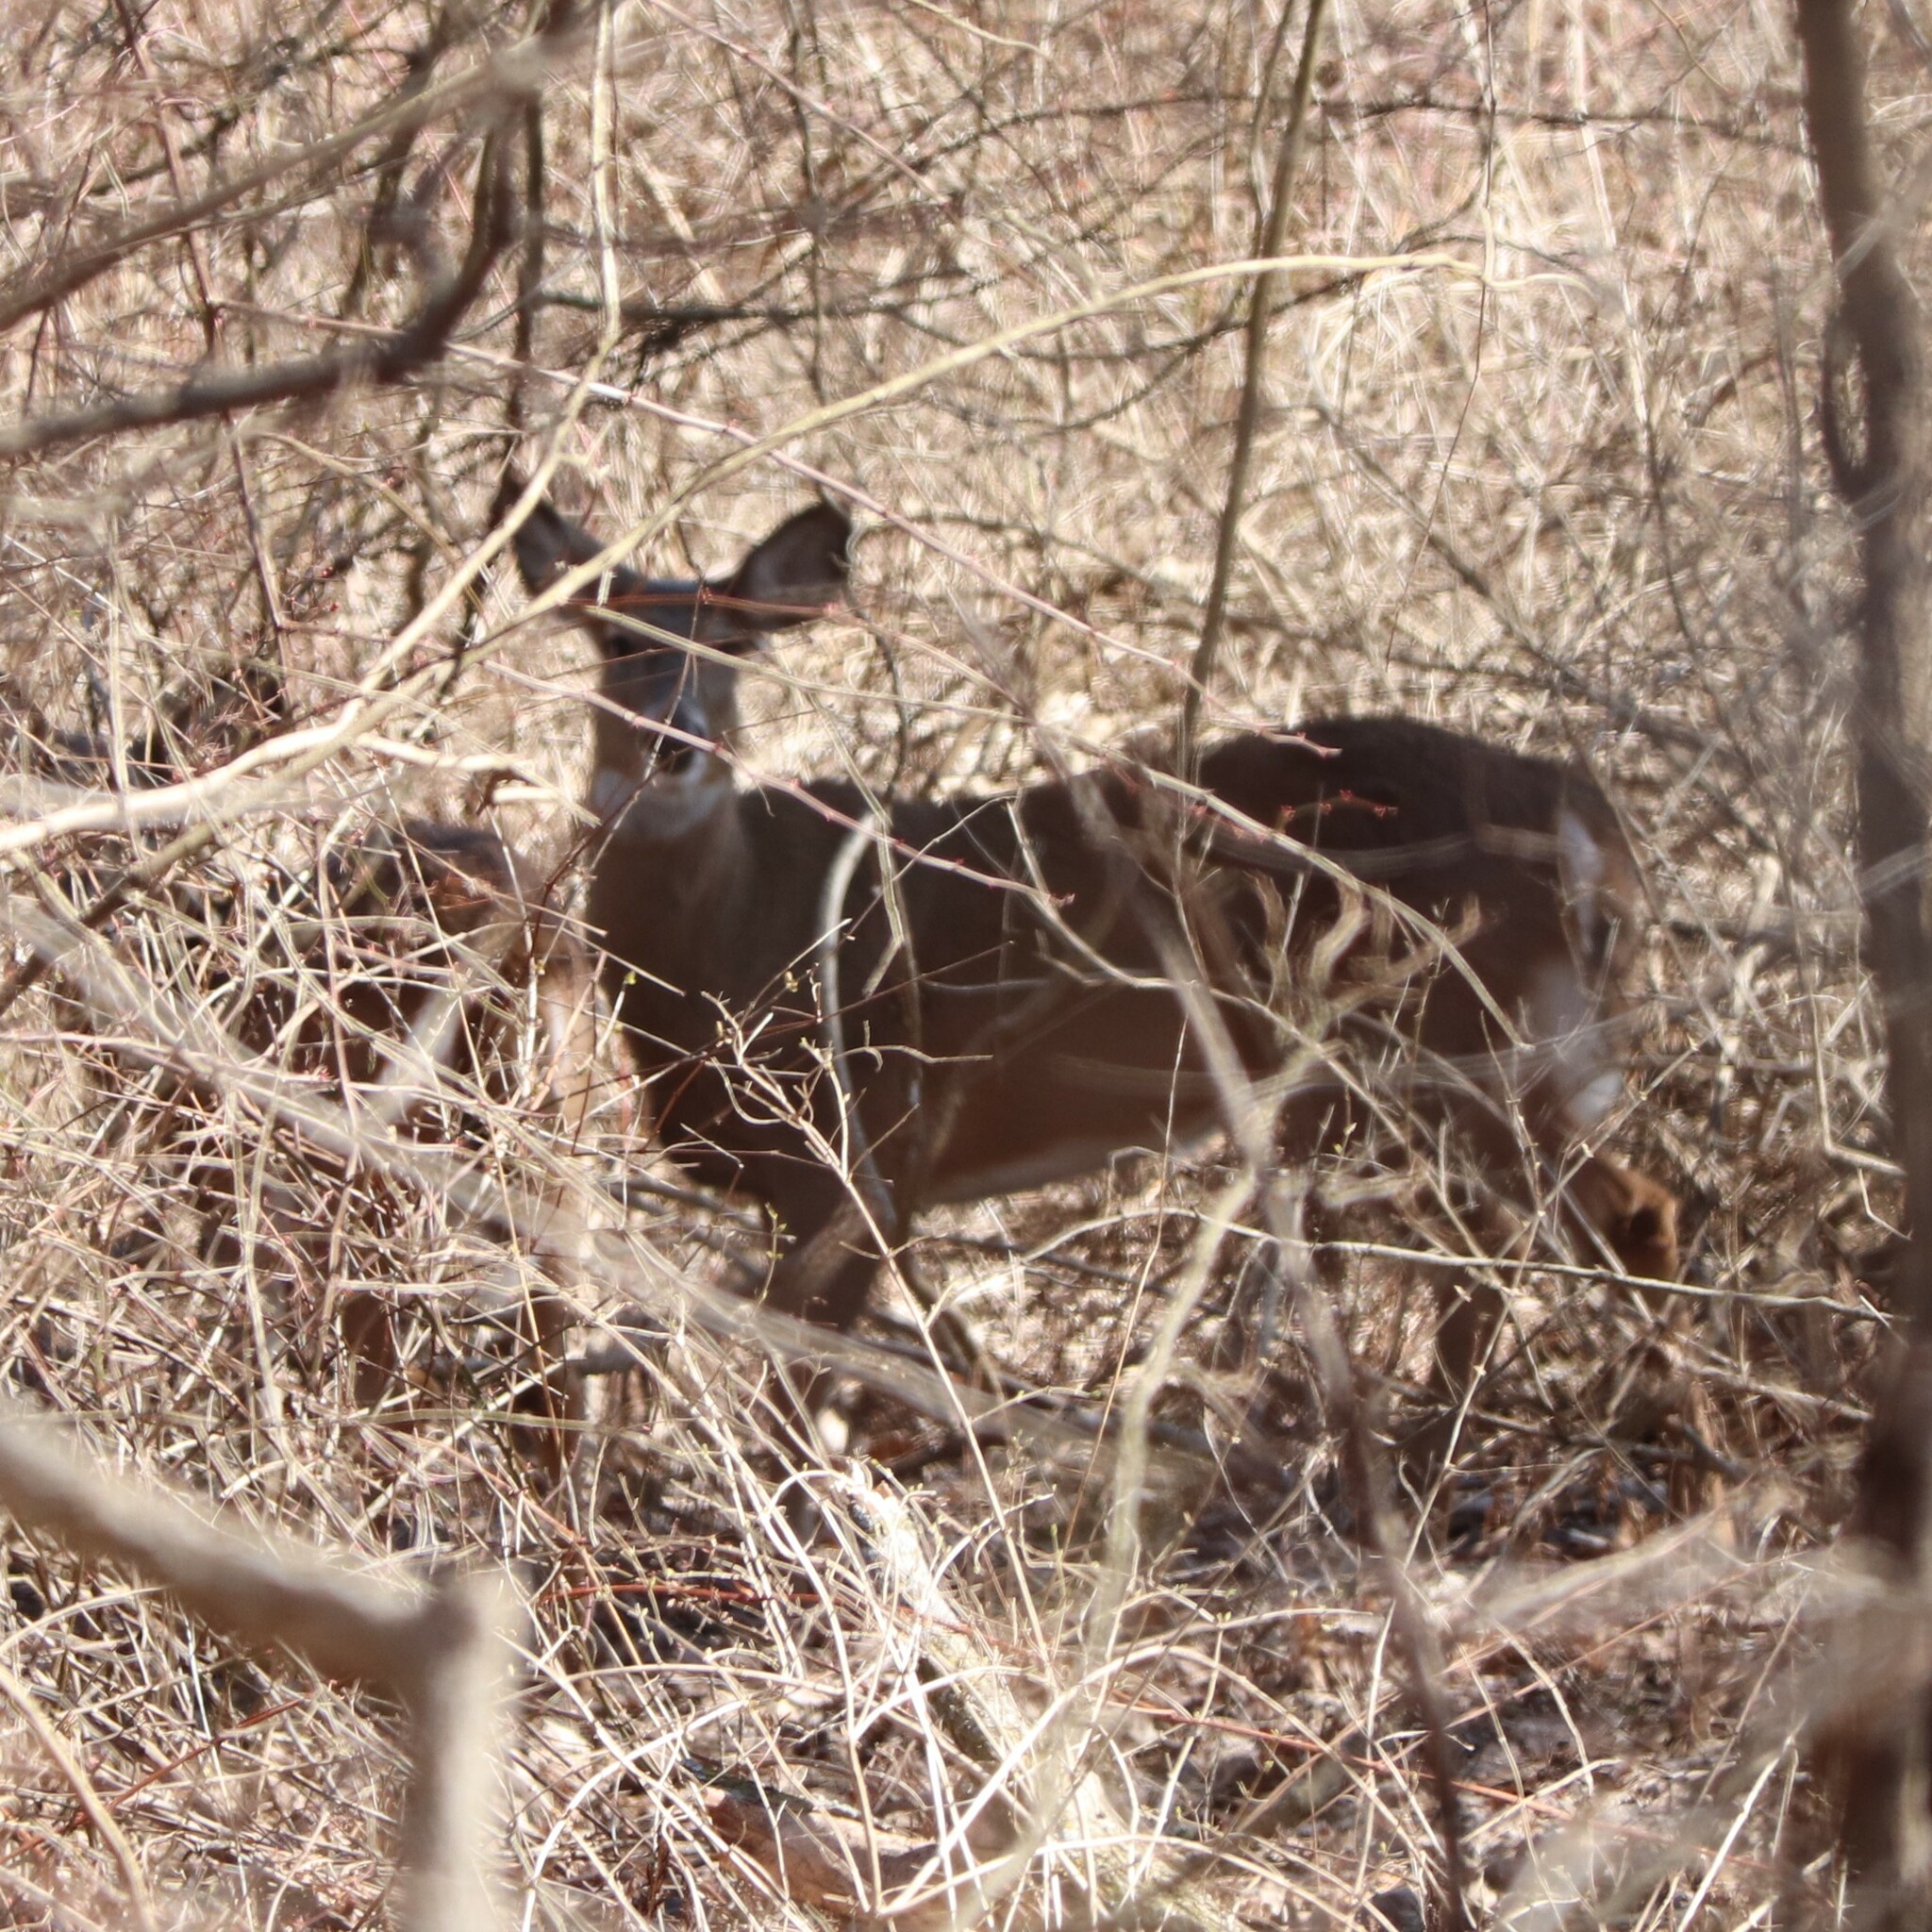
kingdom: Animalia
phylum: Chordata
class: Mammalia
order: Artiodactyla
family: Cervidae
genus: Odocoileus
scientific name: Odocoileus virginianus
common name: White-tailed deer
